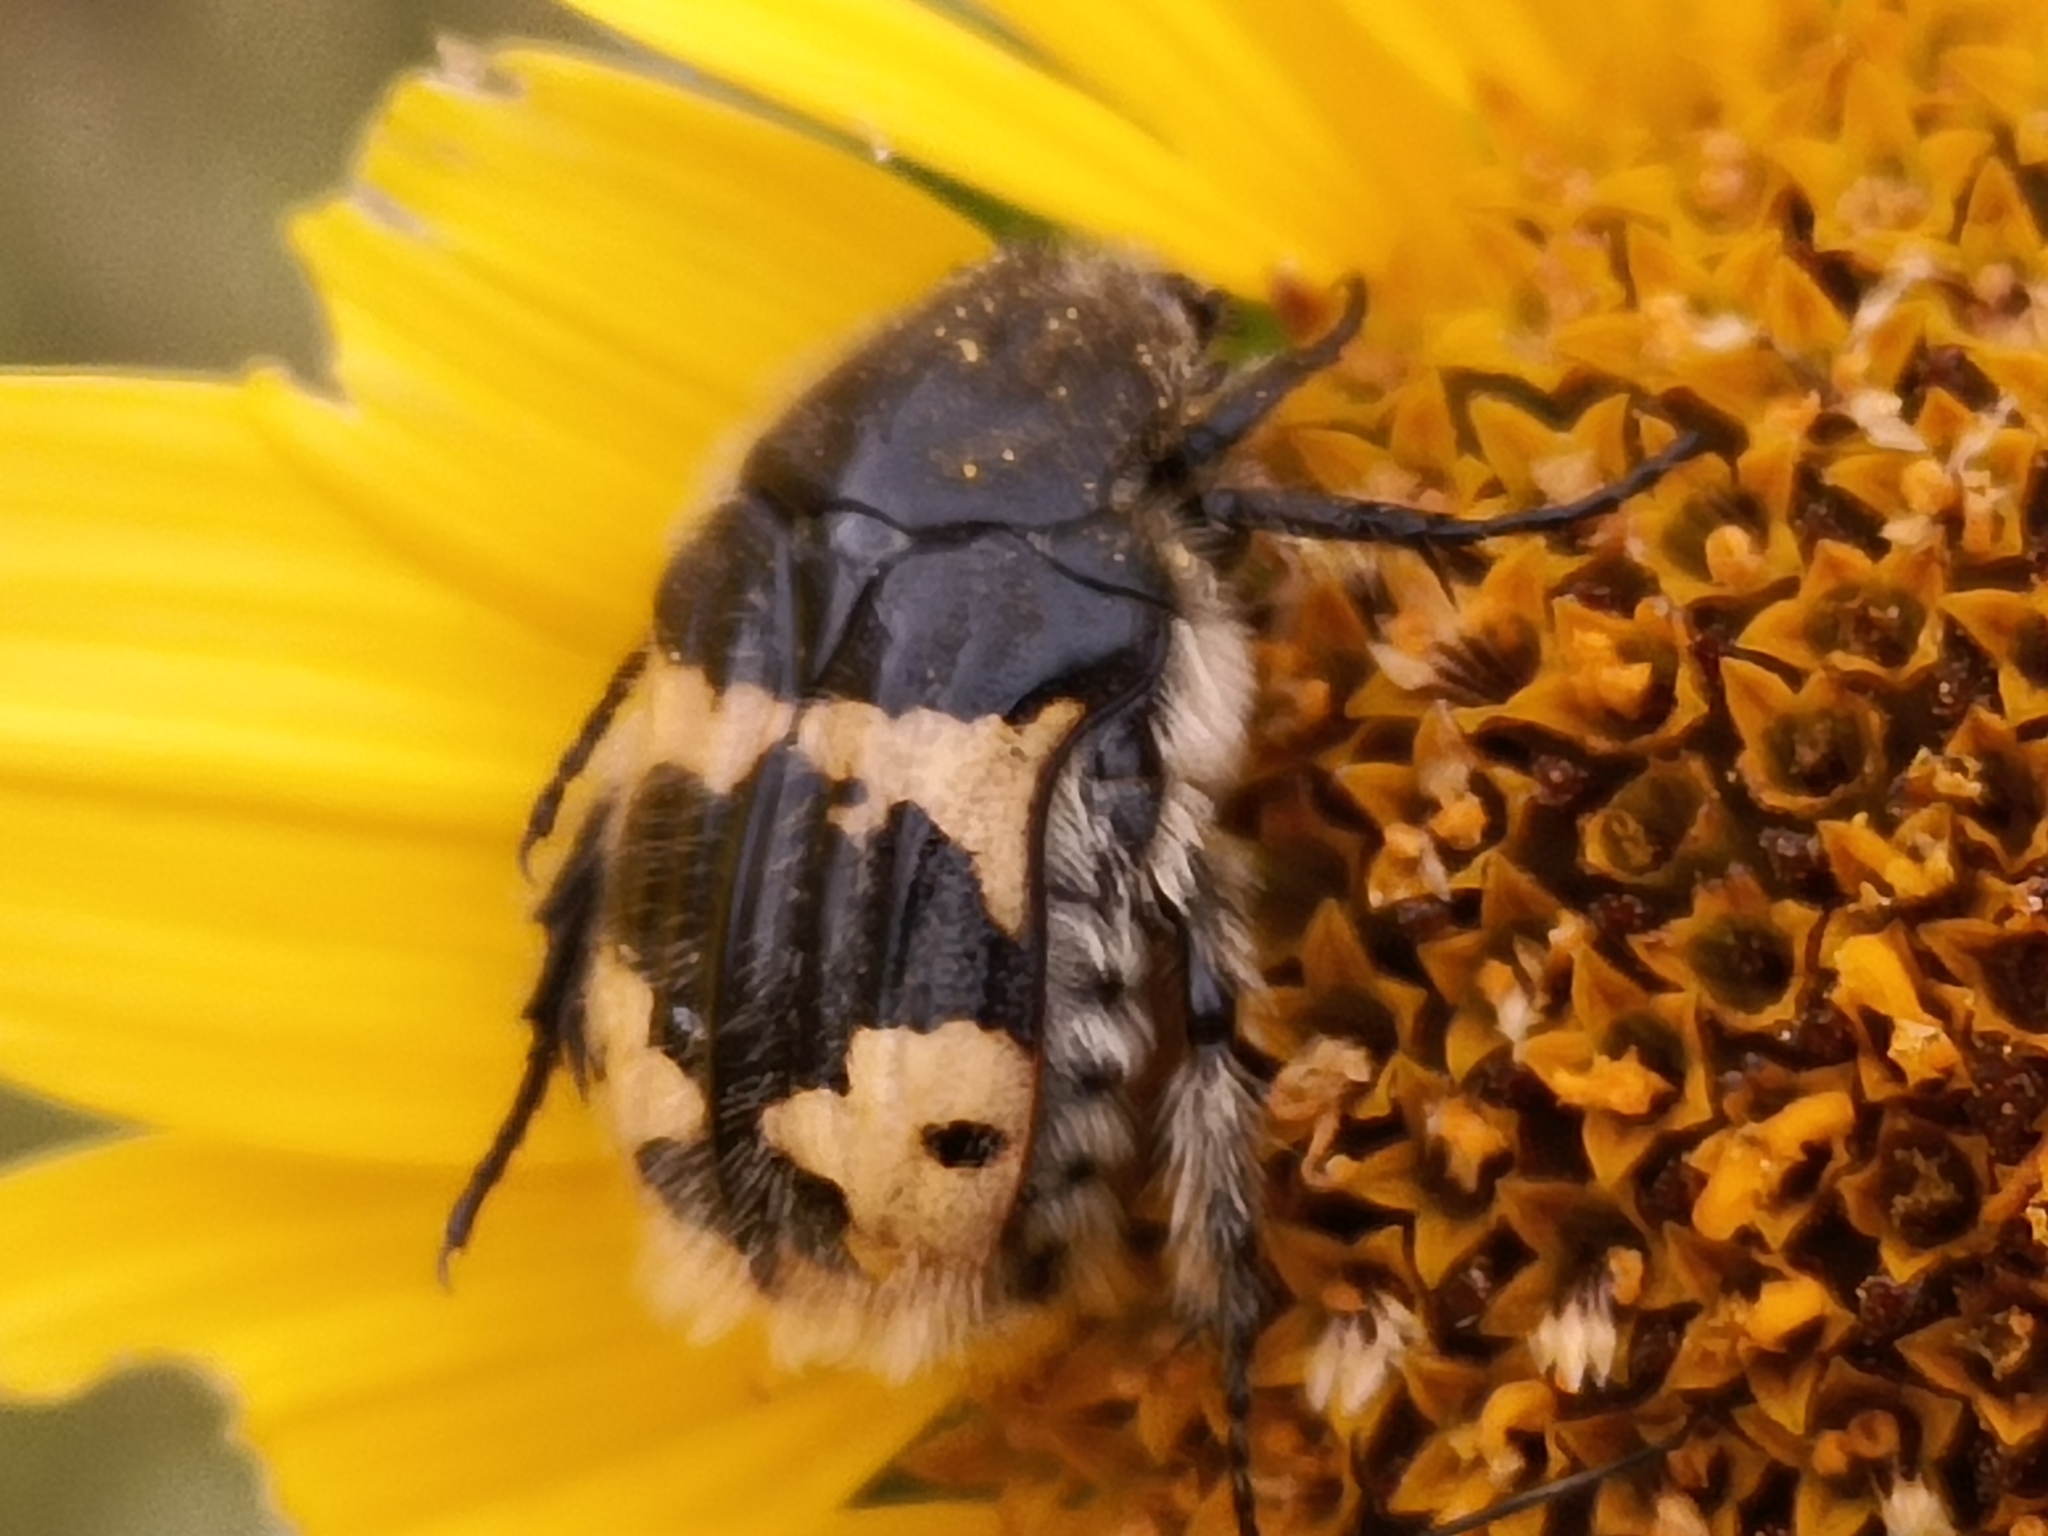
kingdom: Animalia
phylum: Arthropoda
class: Insecta
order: Coleoptera
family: Scarabaeidae
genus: Euphoria
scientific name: Euphoria basalis
